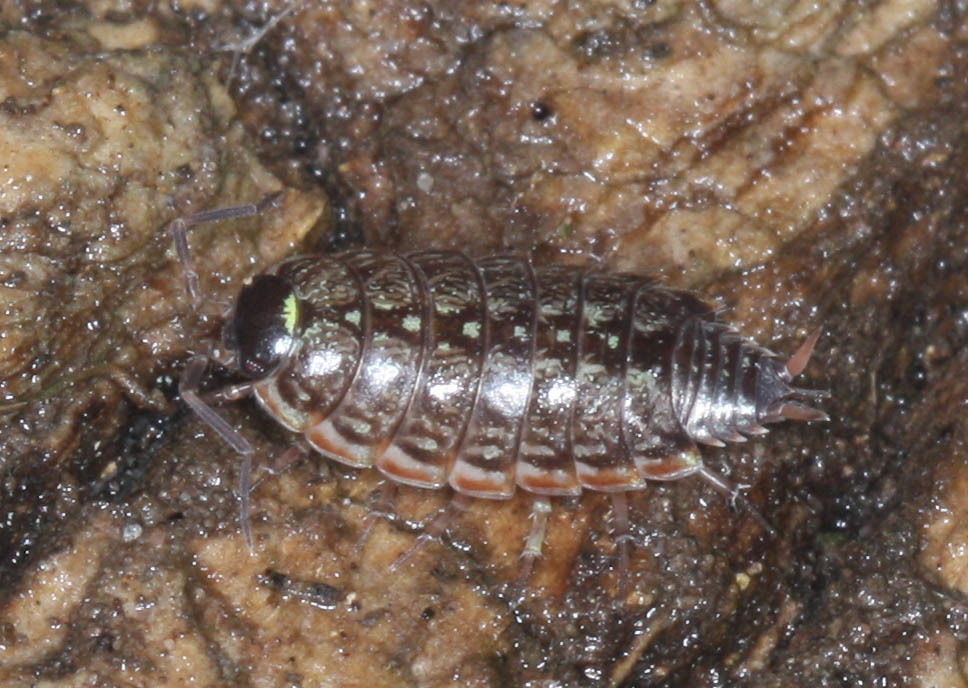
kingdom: Animalia
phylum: Arthropoda
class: Malacostraca
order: Isopoda
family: Philosciidae
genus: Philoscia
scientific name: Philoscia muscorum
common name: Common striped woodlouse
